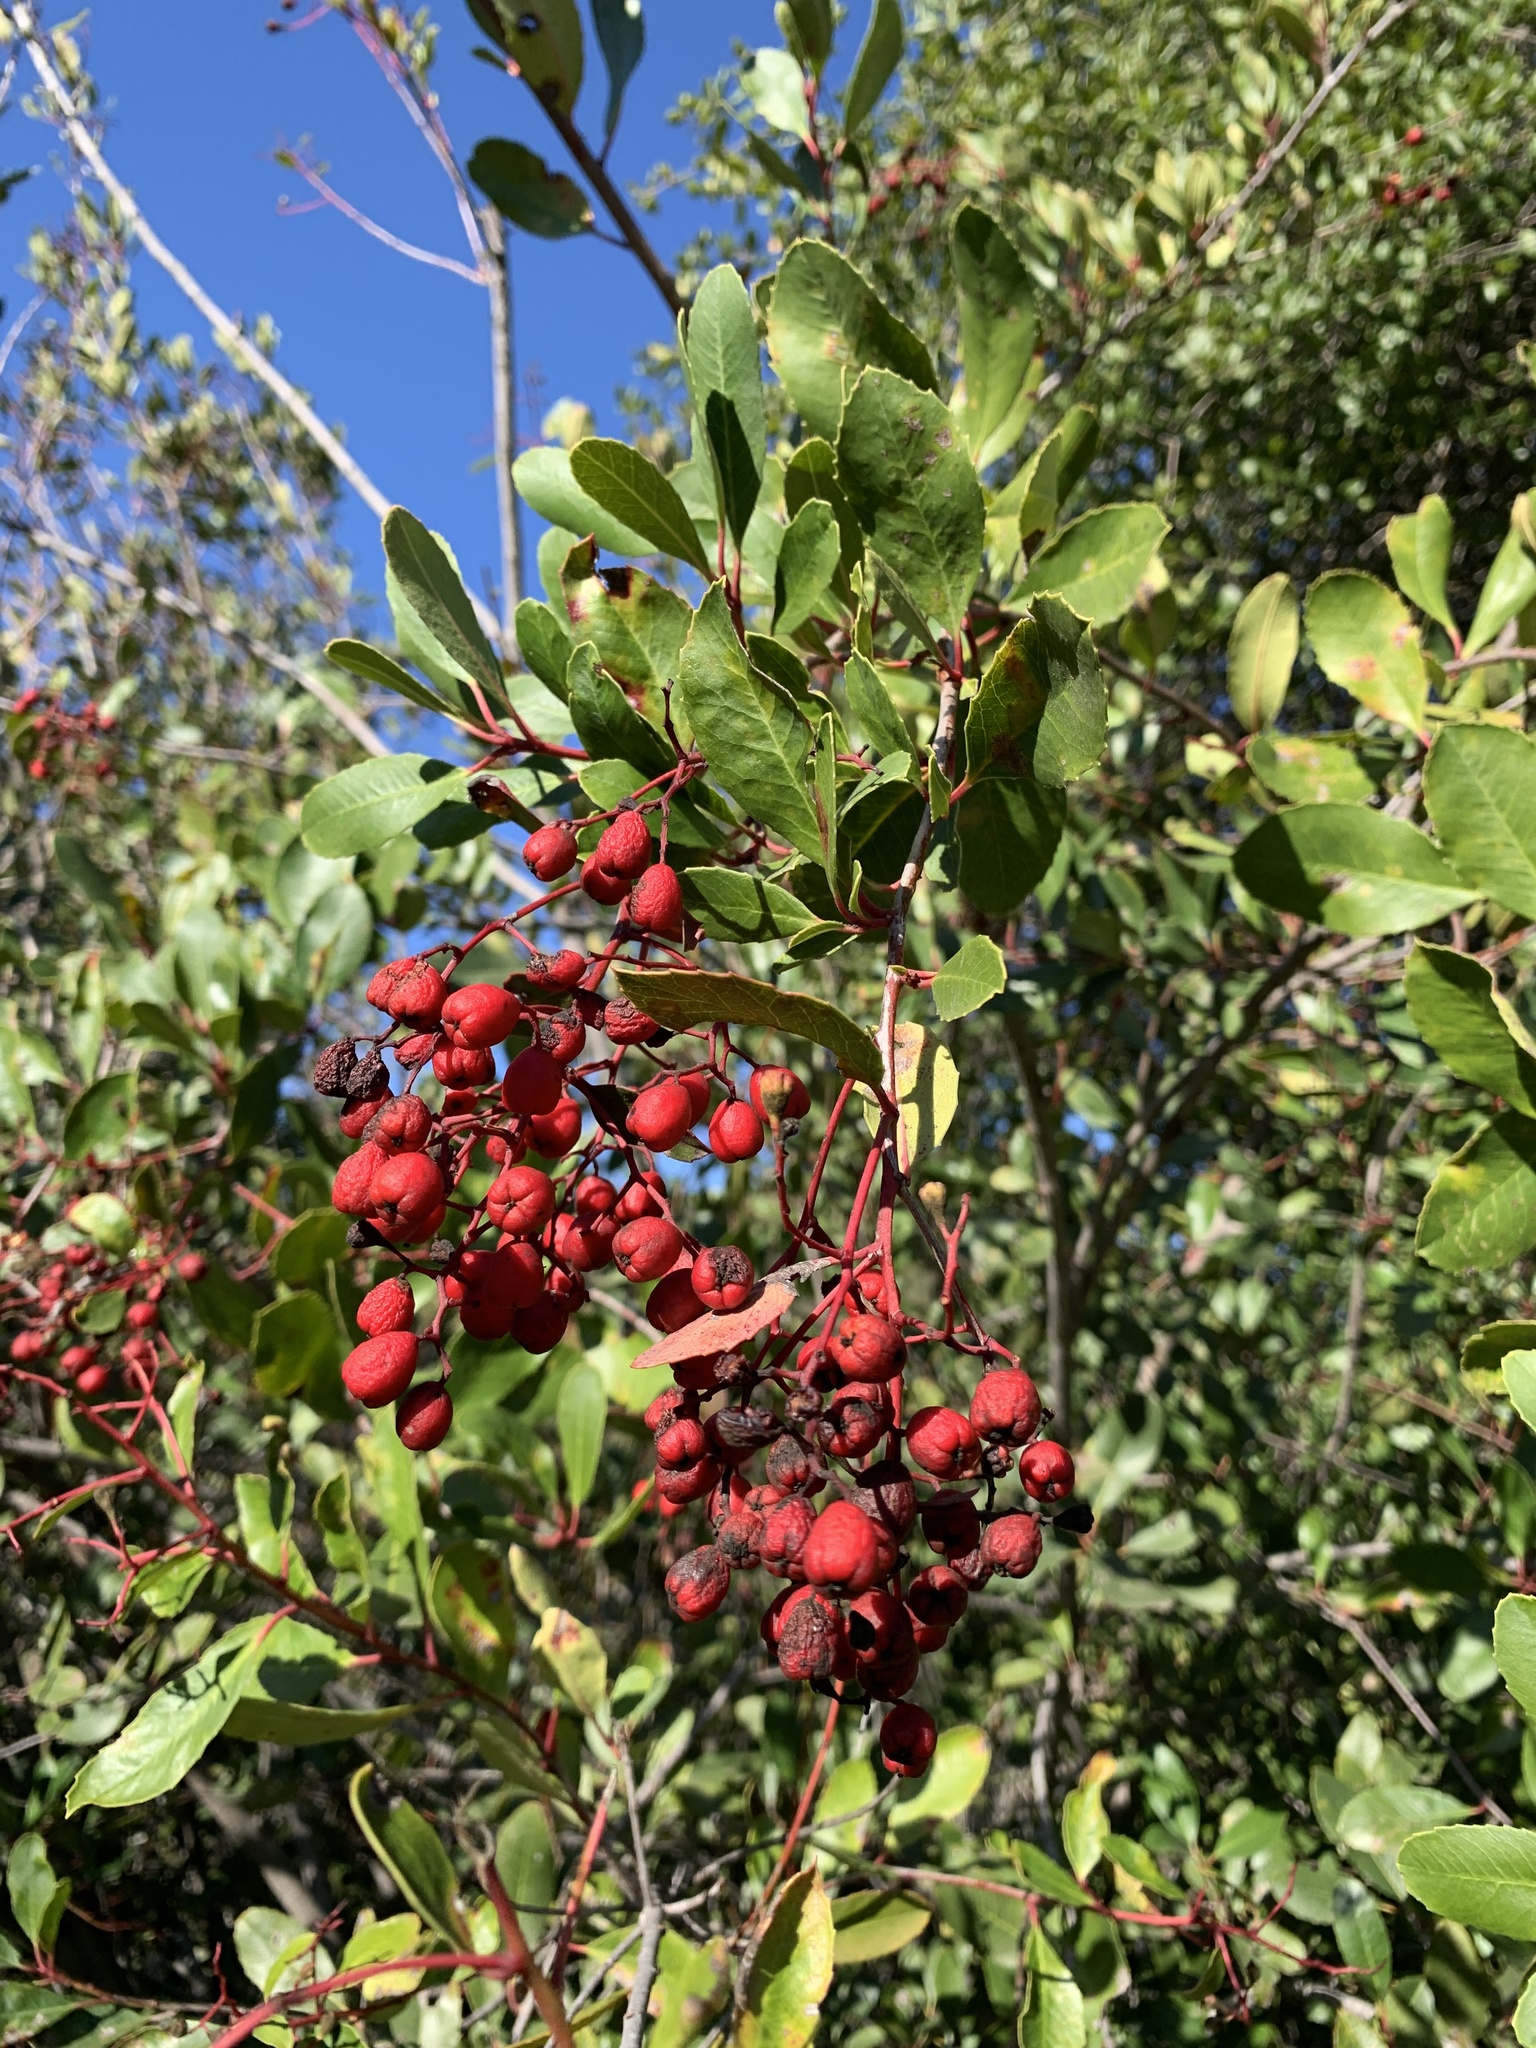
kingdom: Plantae
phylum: Tracheophyta
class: Magnoliopsida
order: Rosales
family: Rosaceae
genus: Heteromeles
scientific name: Heteromeles arbutifolia
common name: California-holly
